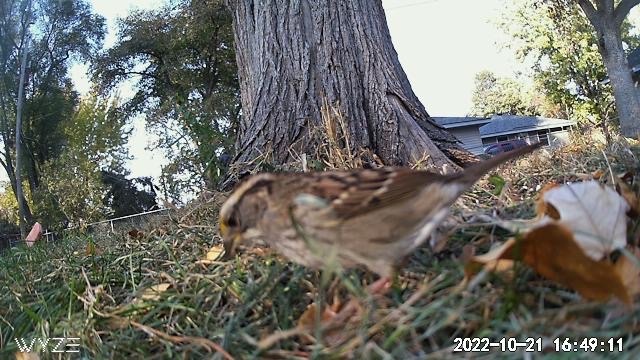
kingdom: Animalia
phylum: Chordata
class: Aves
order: Passeriformes
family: Passerellidae
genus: Zonotrichia
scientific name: Zonotrichia albicollis
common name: White-throated sparrow
